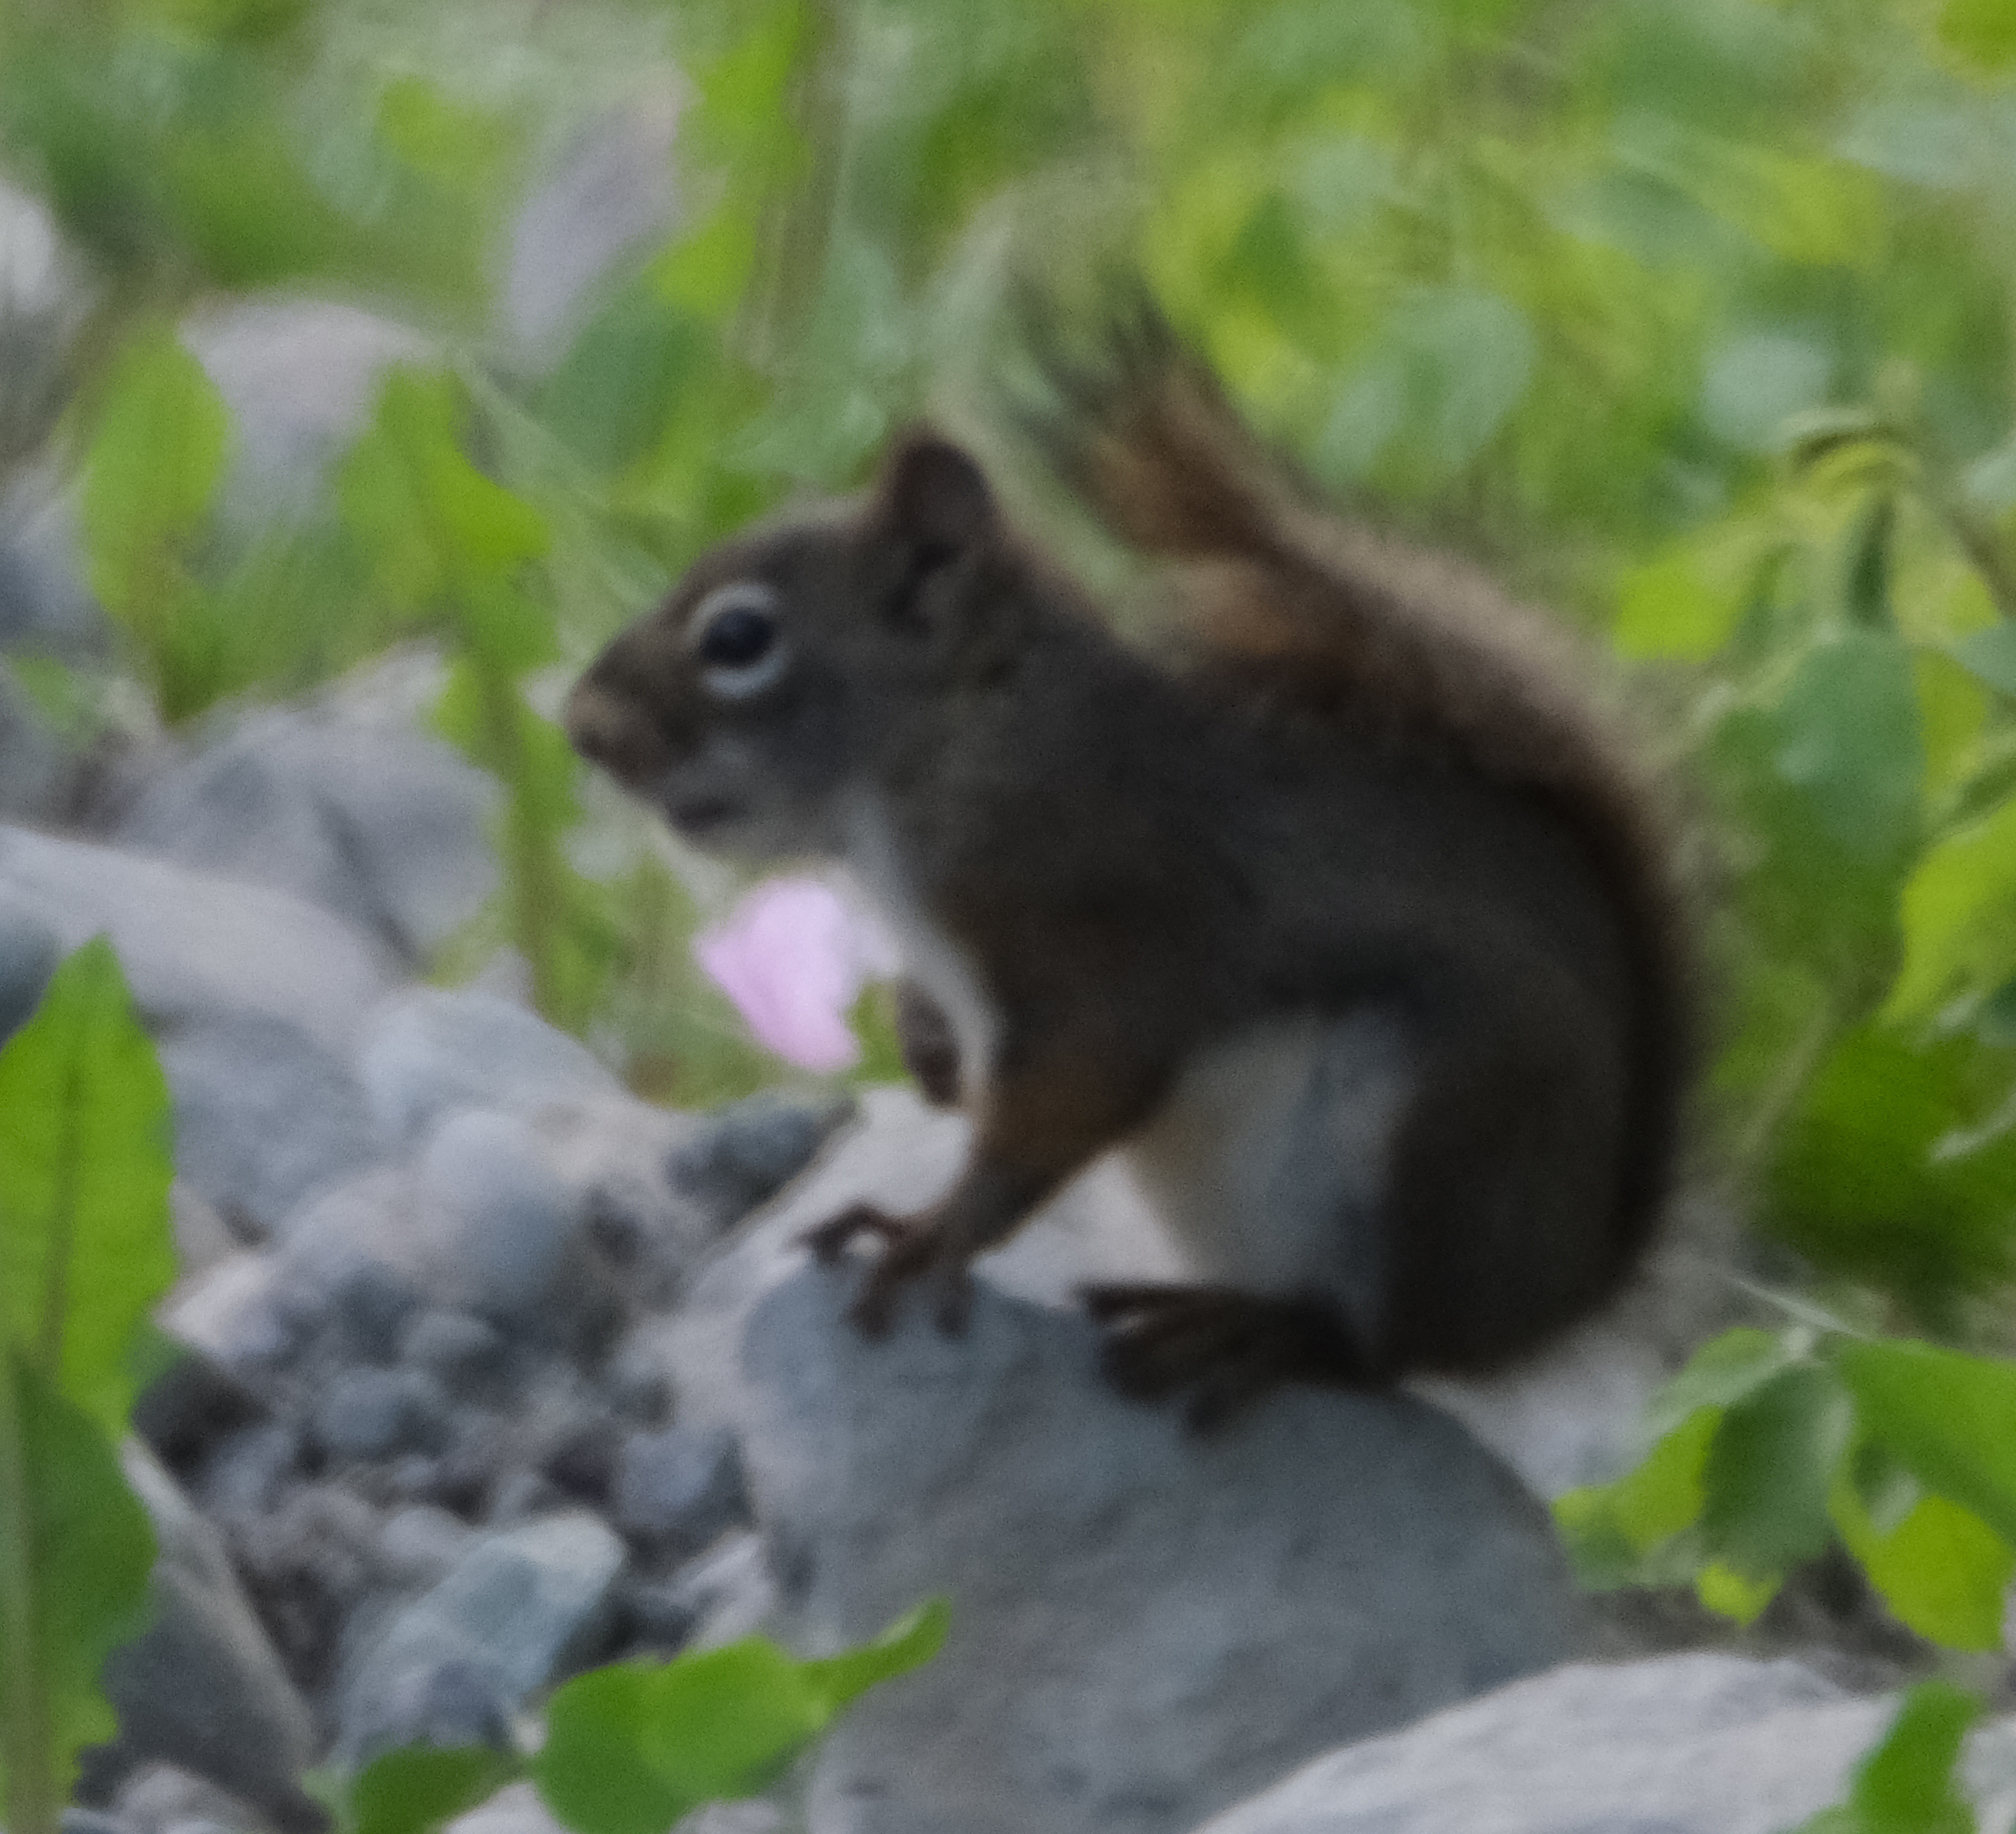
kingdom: Animalia
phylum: Chordata
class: Mammalia
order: Rodentia
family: Sciuridae
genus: Tamiasciurus
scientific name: Tamiasciurus hudsonicus
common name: Red squirrel
